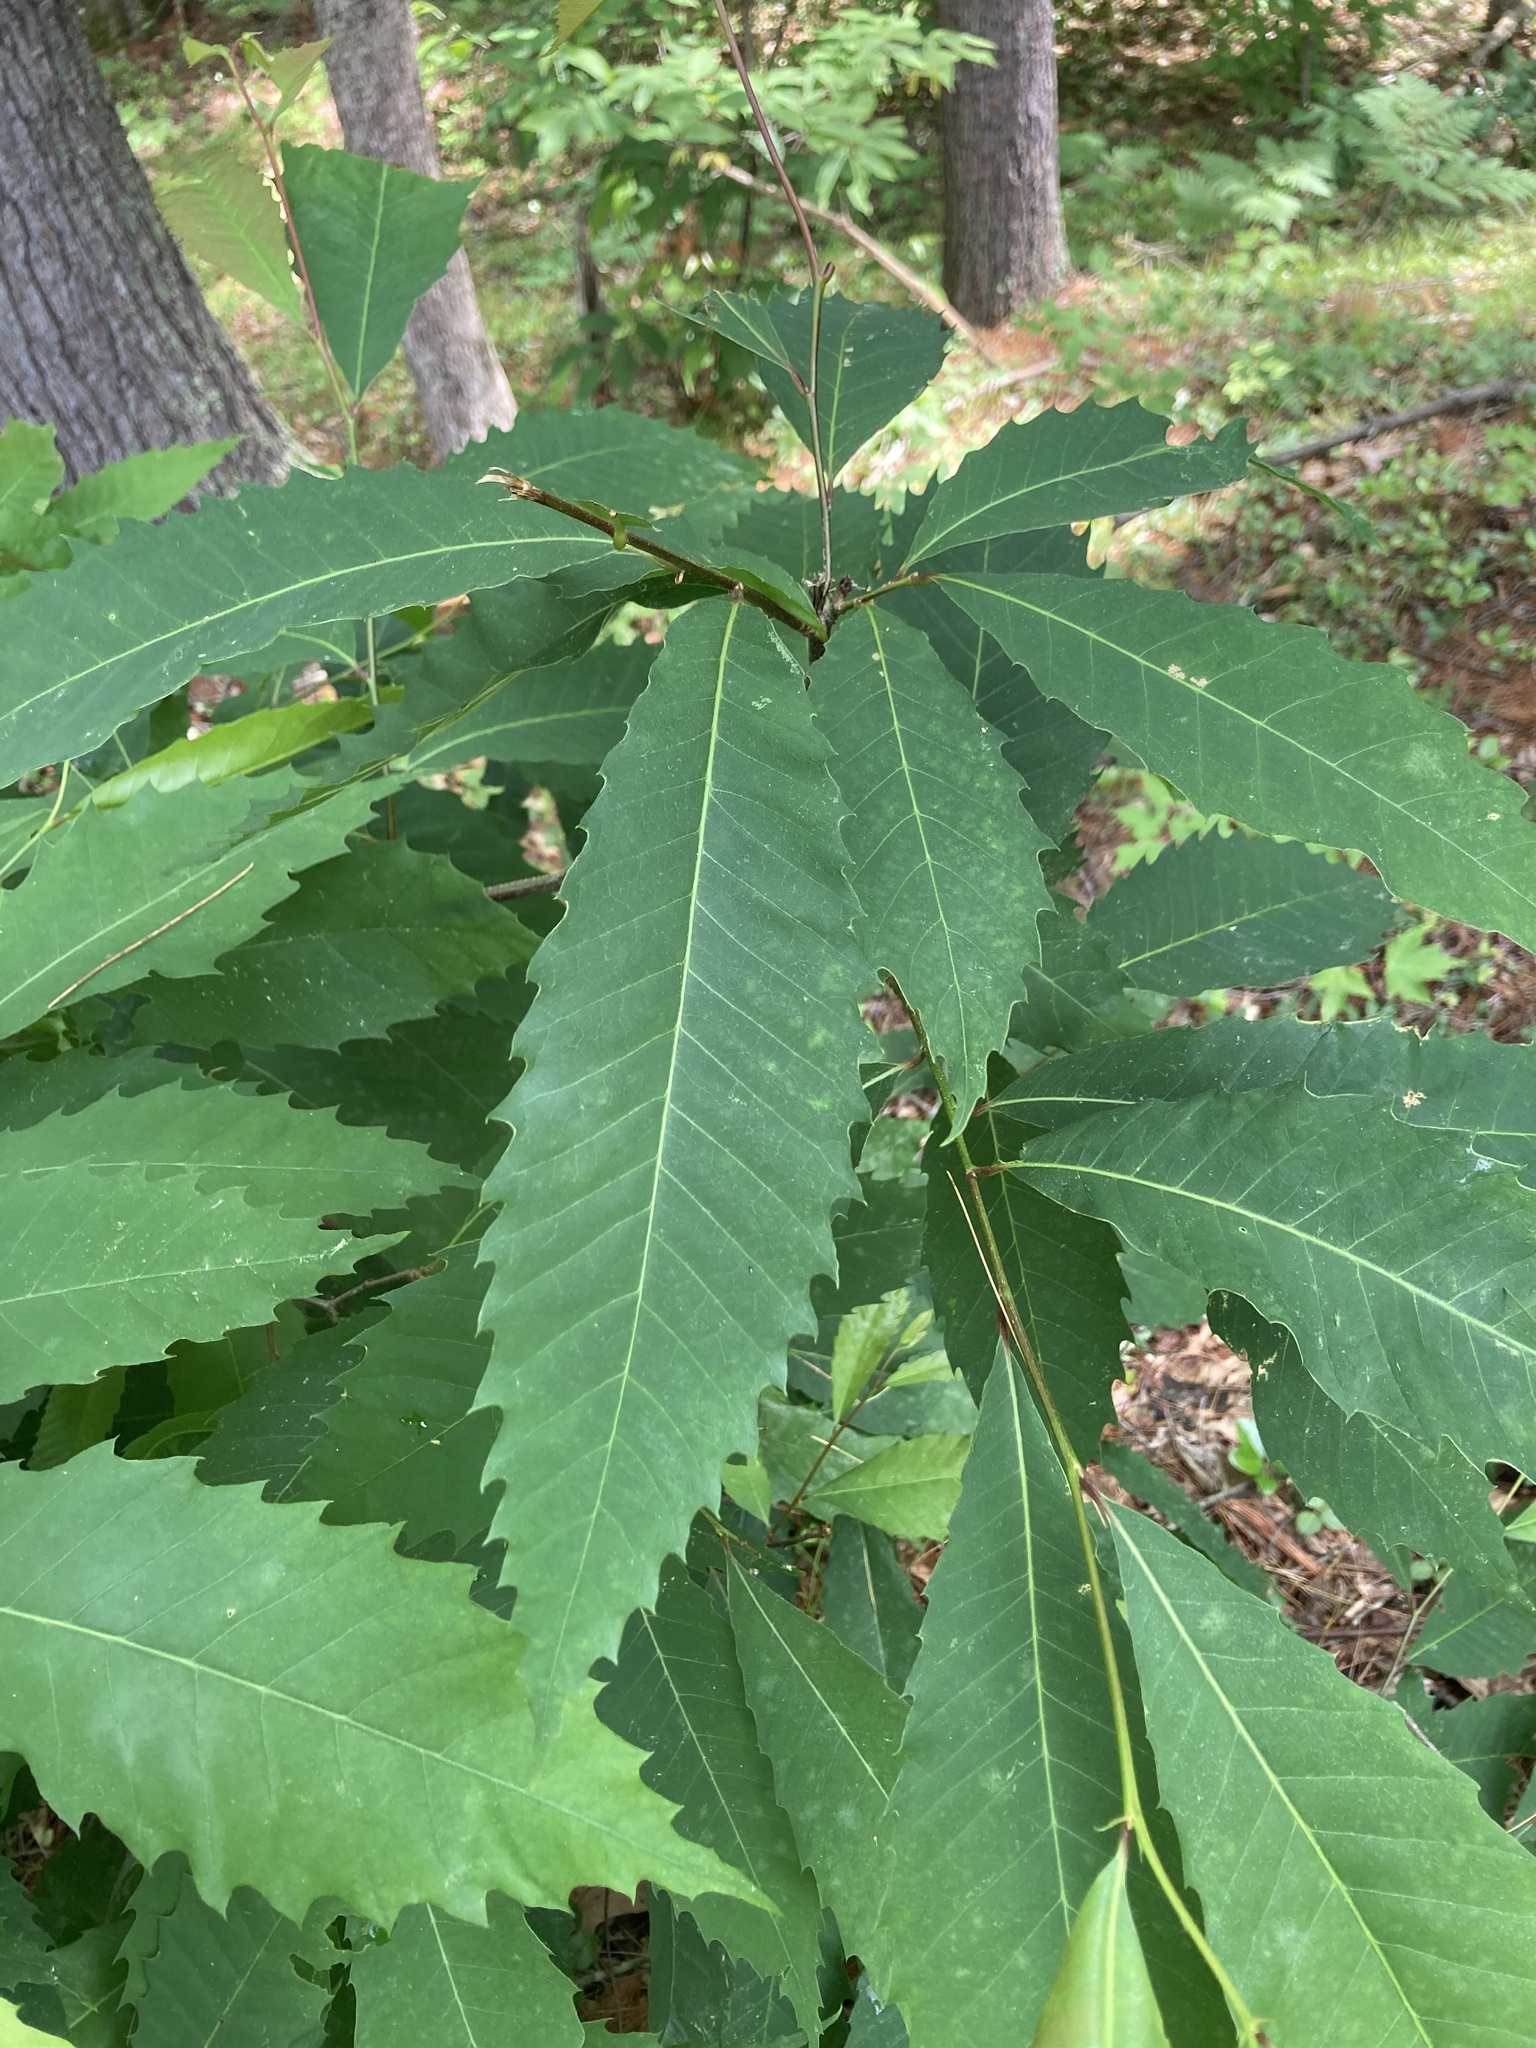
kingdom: Plantae
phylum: Tracheophyta
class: Magnoliopsida
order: Fagales
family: Fagaceae
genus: Castanea
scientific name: Castanea dentata
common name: American chestnut
